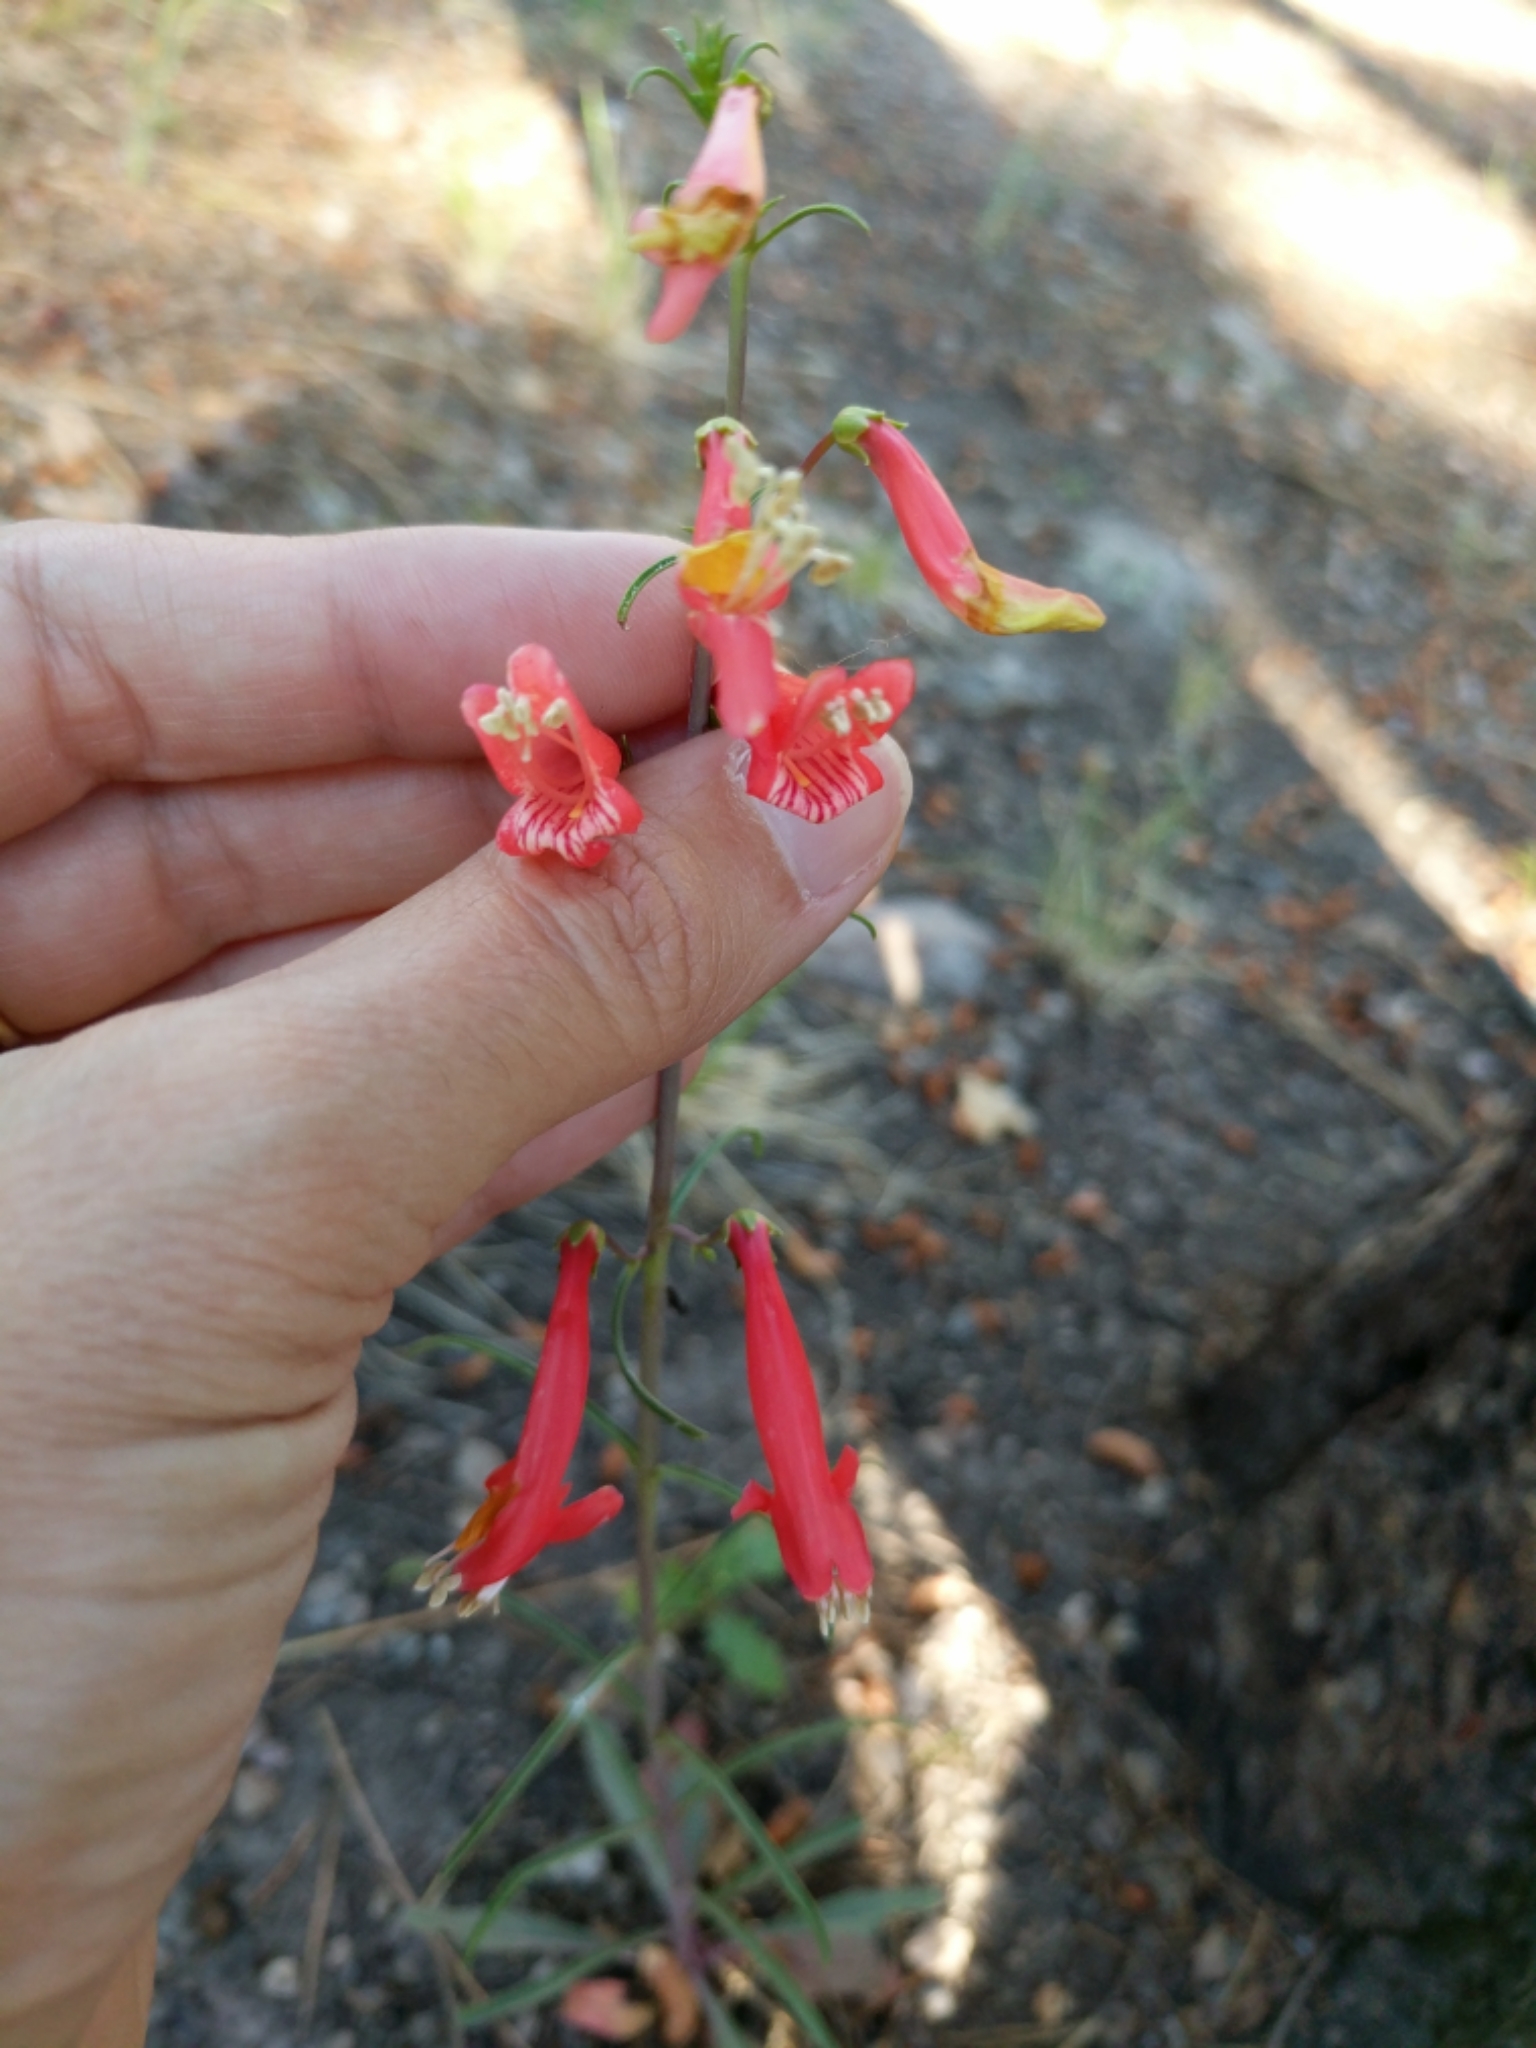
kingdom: Plantae
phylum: Tracheophyta
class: Magnoliopsida
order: Lamiales
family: Plantaginaceae
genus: Penstemon
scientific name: Penstemon barbatus
